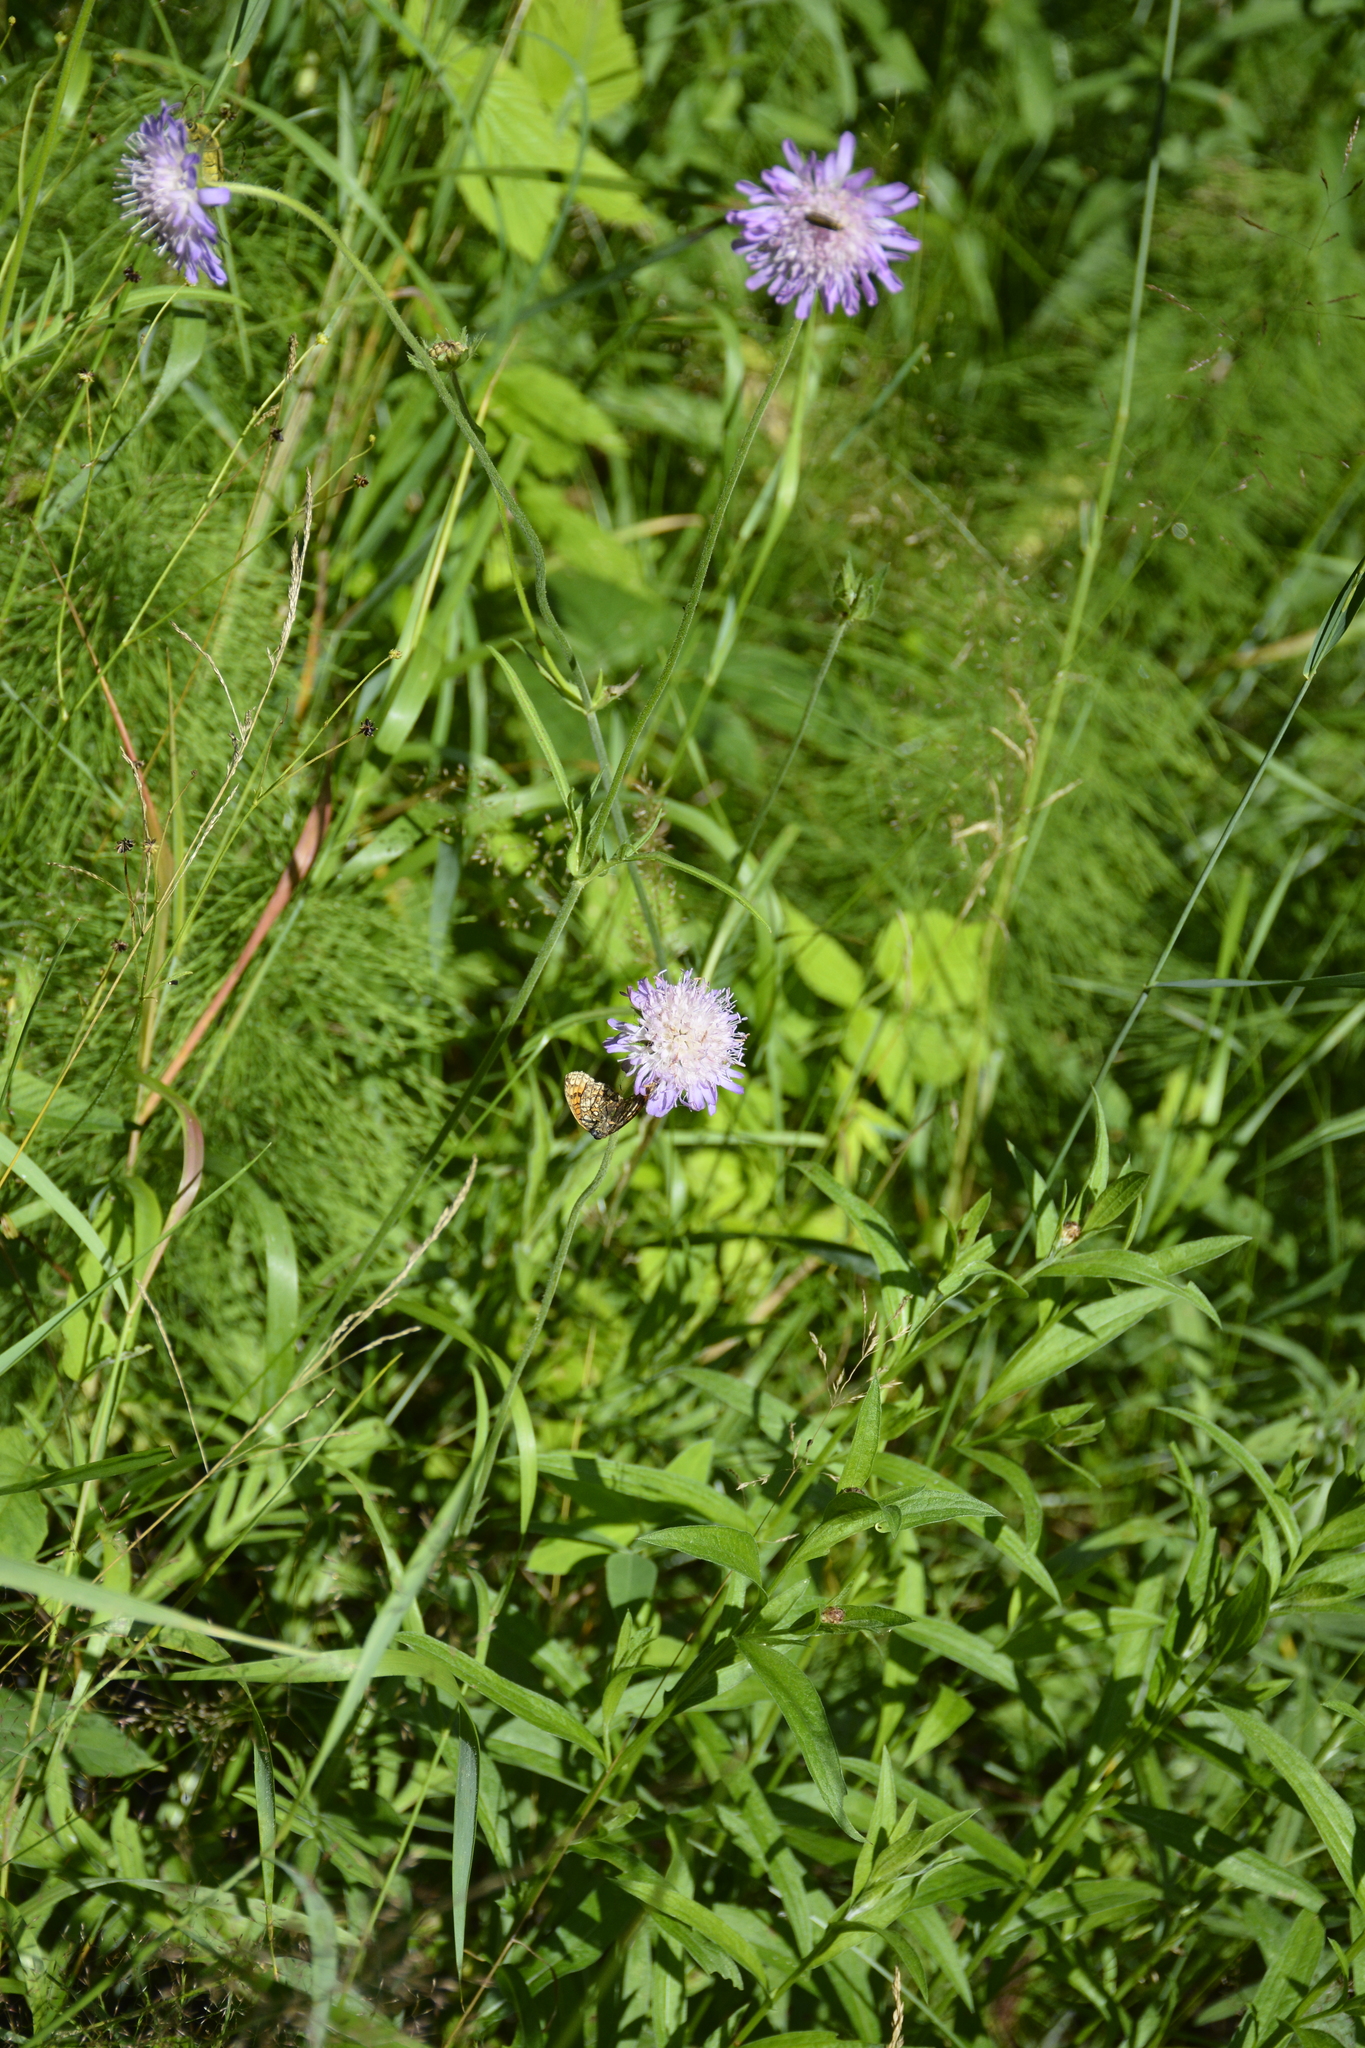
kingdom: Plantae
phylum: Tracheophyta
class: Magnoliopsida
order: Dipsacales
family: Caprifoliaceae
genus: Knautia
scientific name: Knautia arvensis
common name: Field scabiosa
